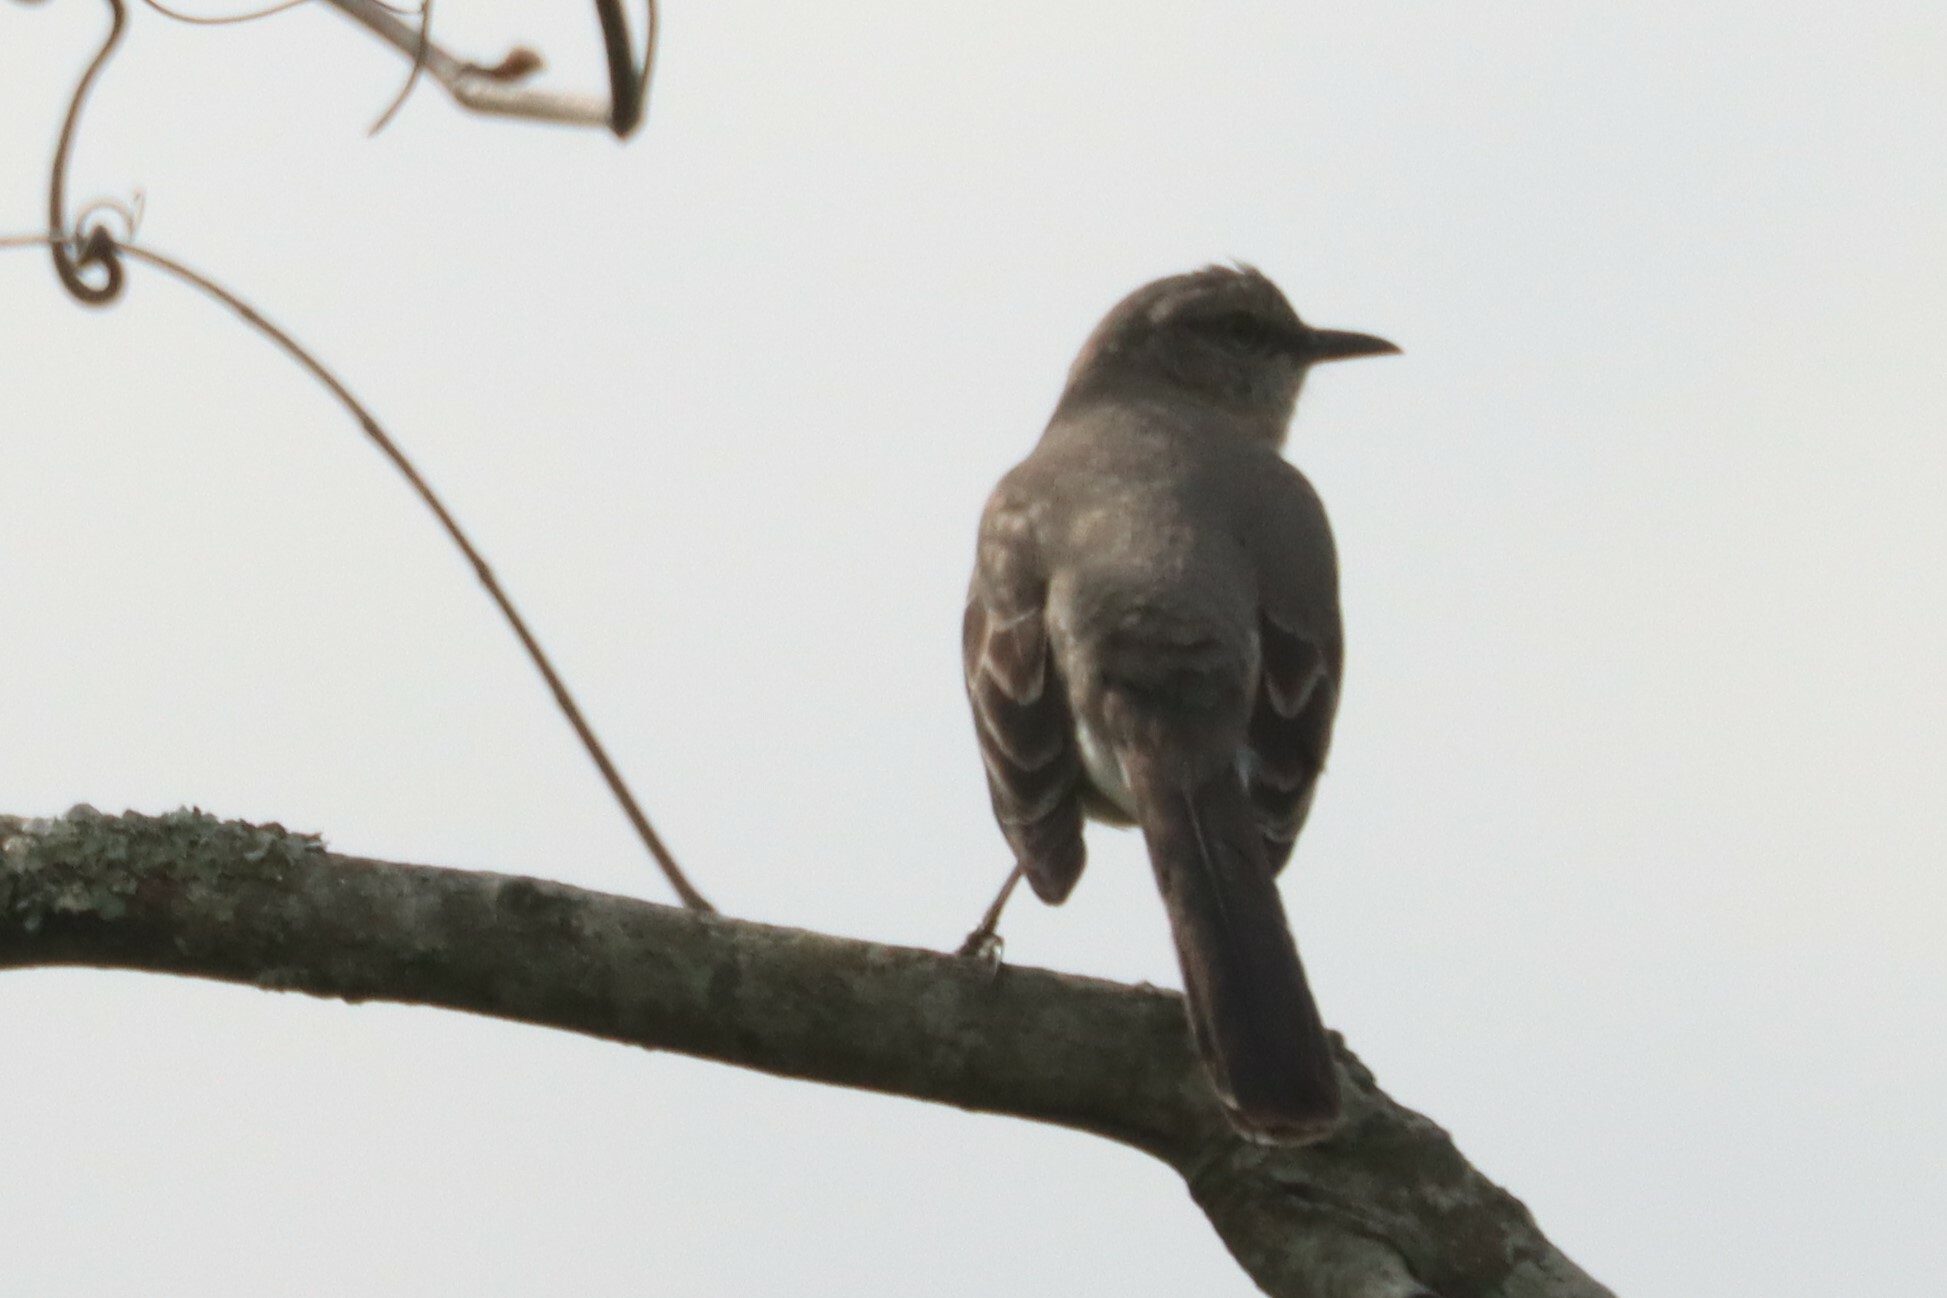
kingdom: Animalia
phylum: Chordata
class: Aves
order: Passeriformes
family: Mimidae
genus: Mimus
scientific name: Mimus polyglottos
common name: Northern mockingbird
